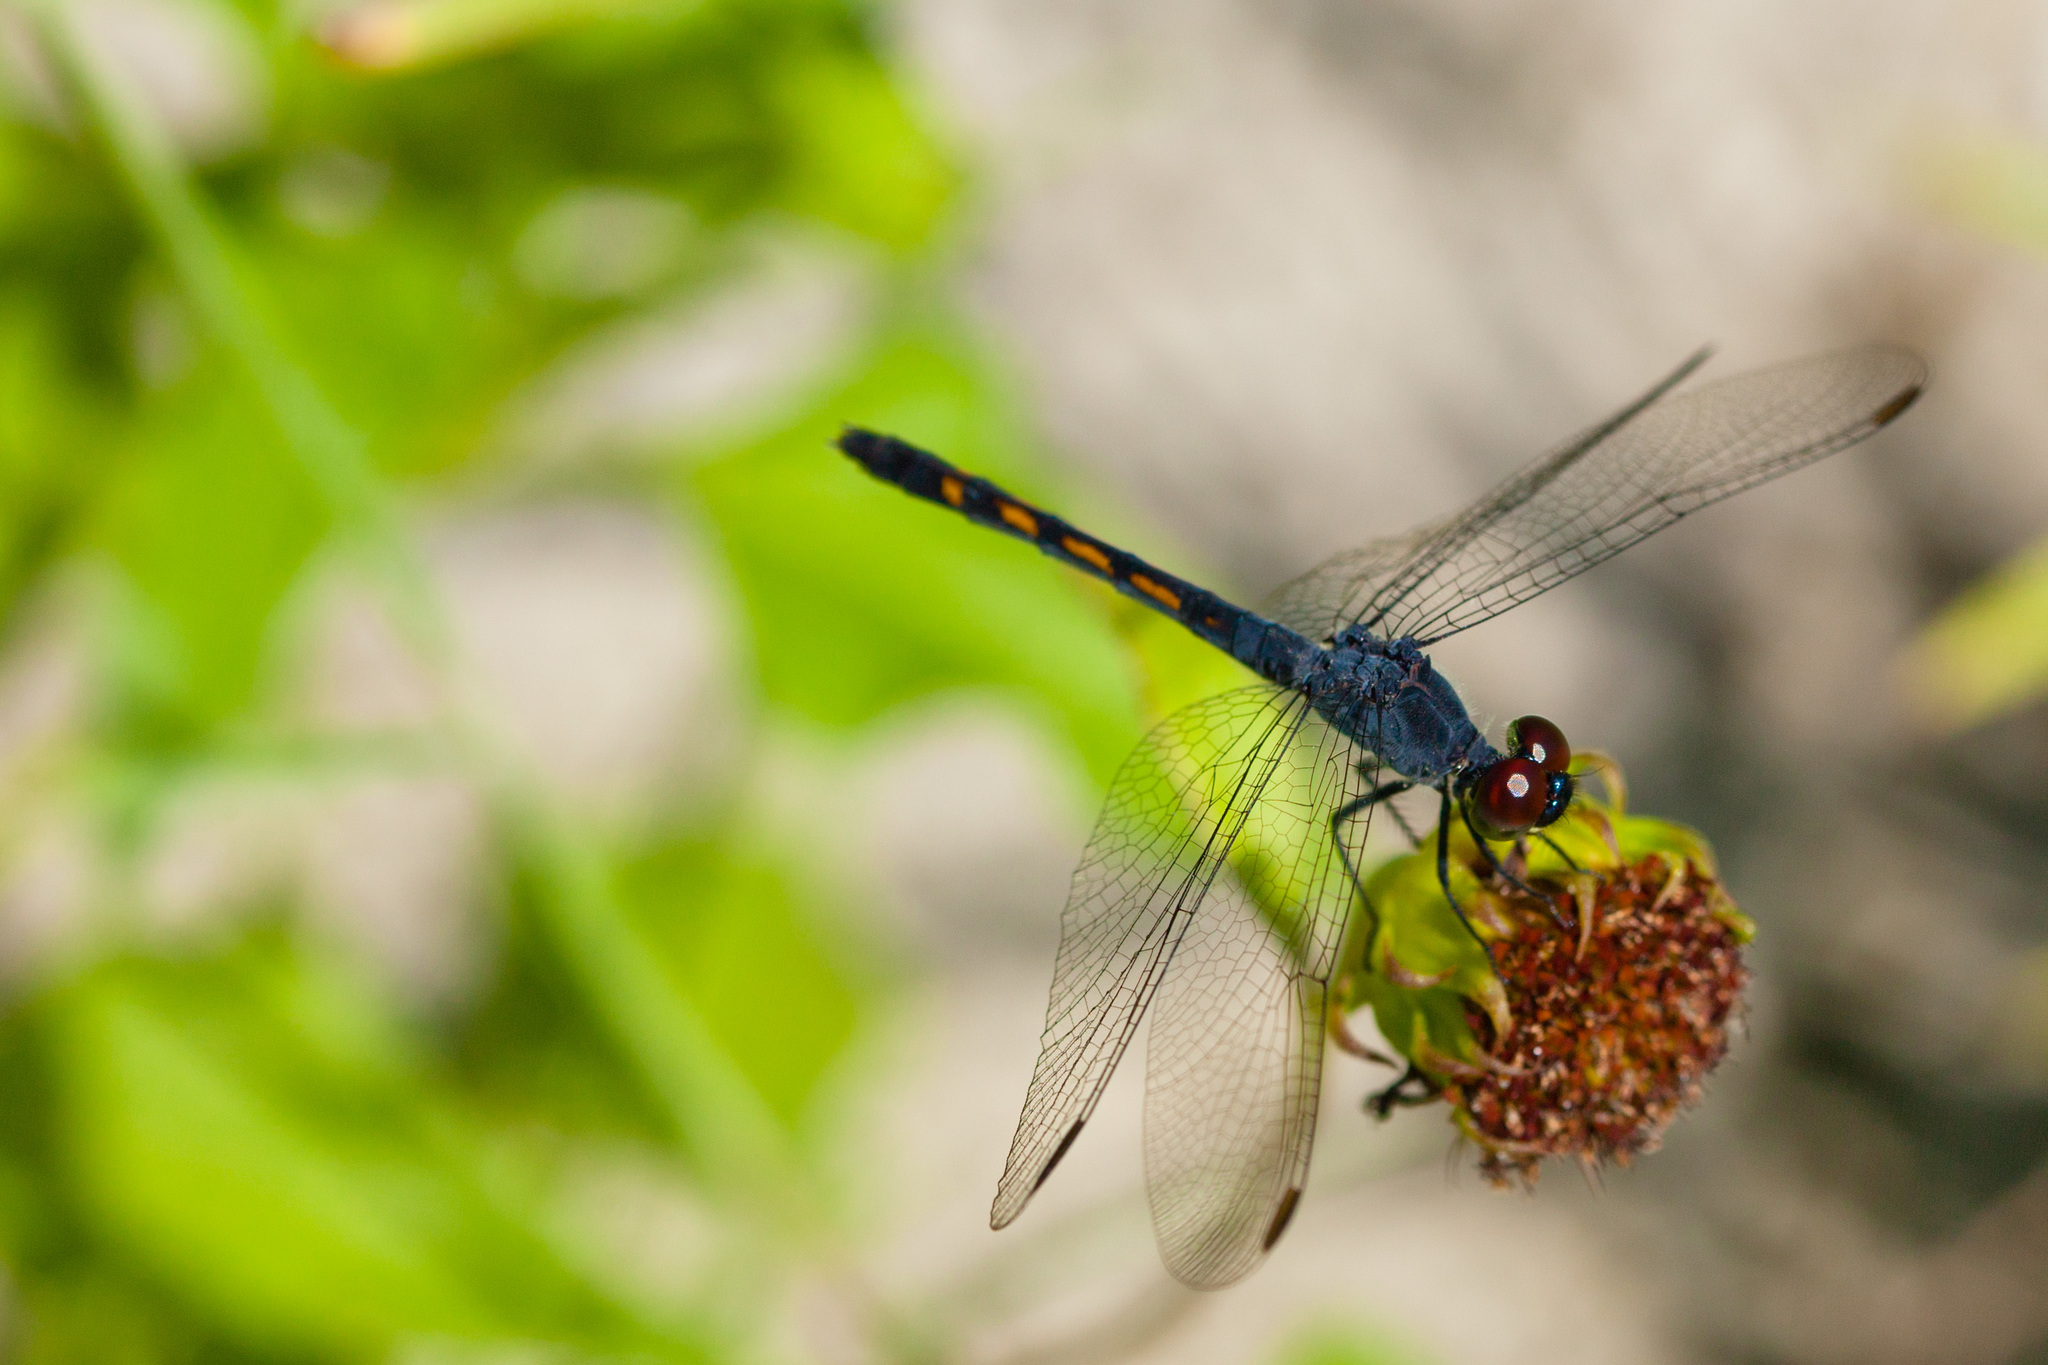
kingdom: Animalia
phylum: Arthropoda
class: Insecta
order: Odonata
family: Libellulidae
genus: Erythrodiplax
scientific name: Erythrodiplax berenice
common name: Seaside dragonlet
